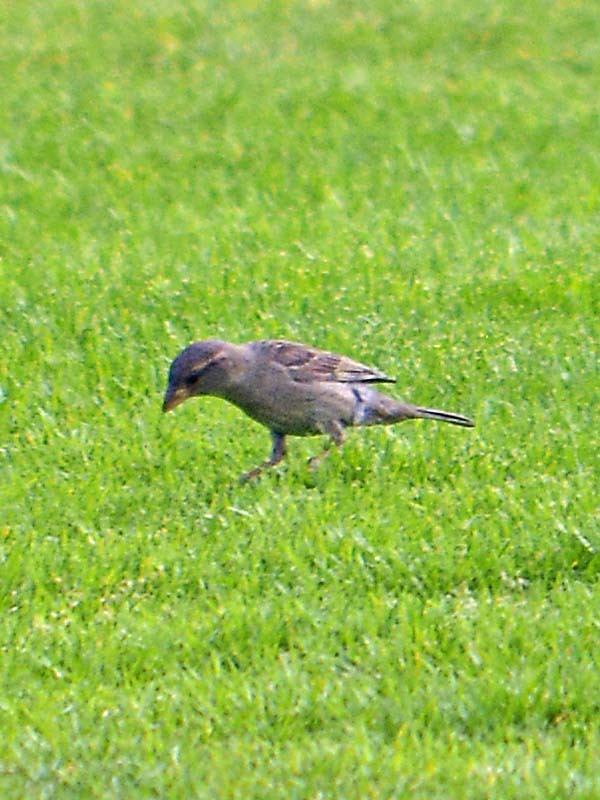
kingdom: Animalia
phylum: Chordata
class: Aves
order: Passeriformes
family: Passeridae
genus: Passer
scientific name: Passer domesticus
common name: House sparrow
